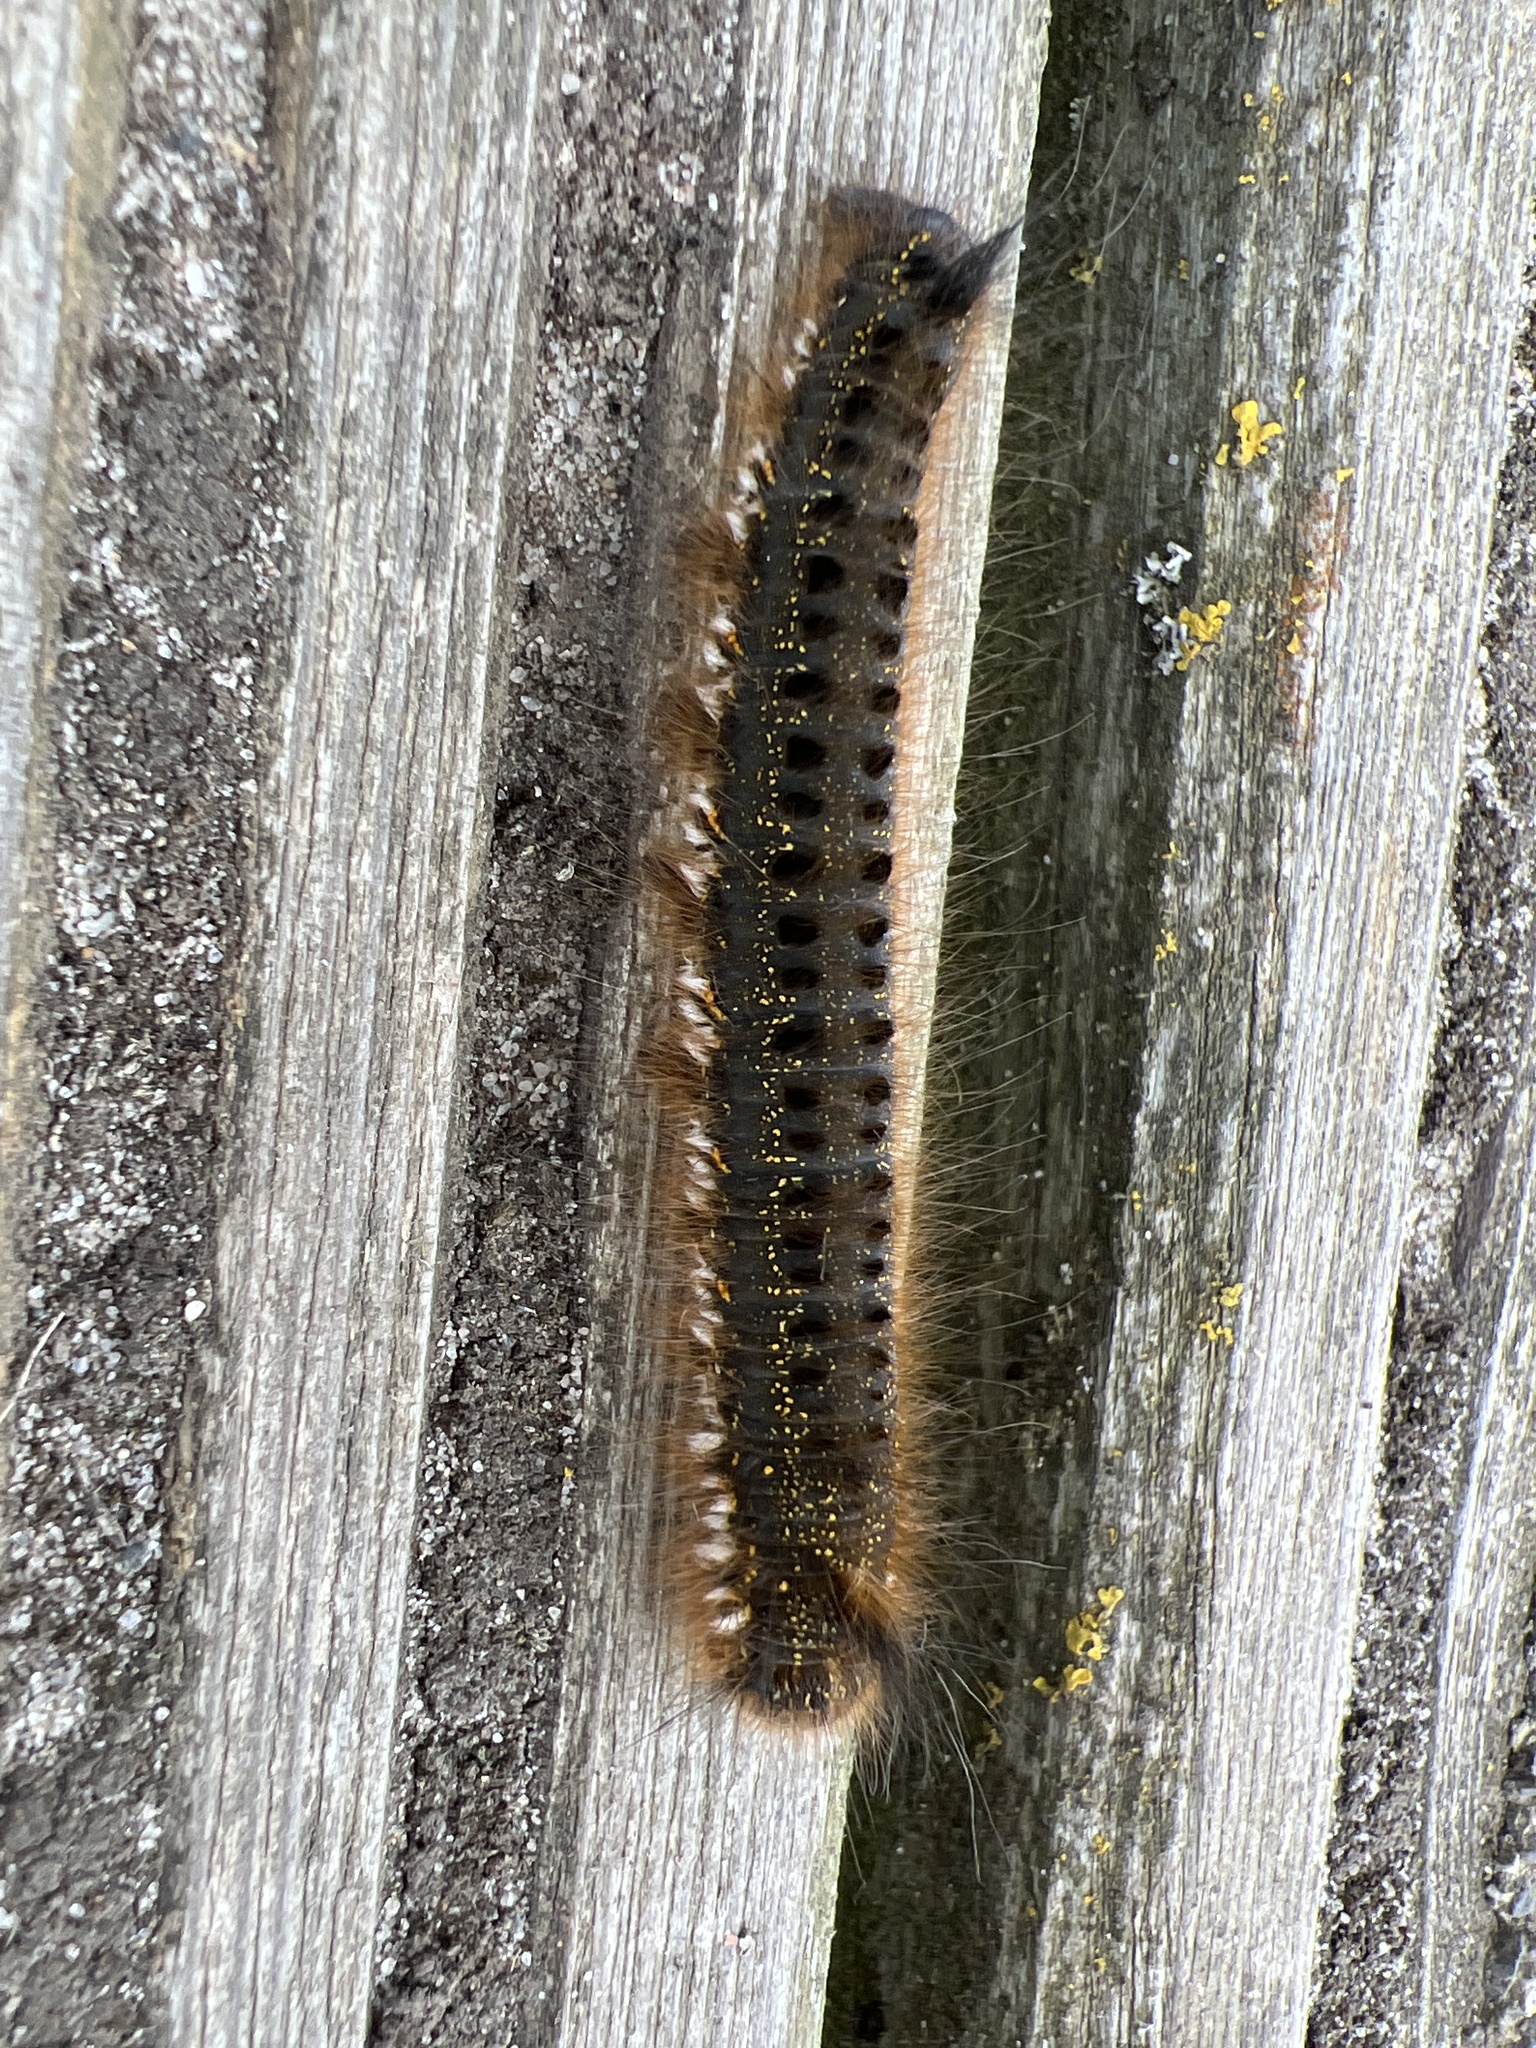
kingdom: Animalia
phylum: Arthropoda
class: Insecta
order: Lepidoptera
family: Lasiocampidae
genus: Euthrix
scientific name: Euthrix potatoria
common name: Drinker
